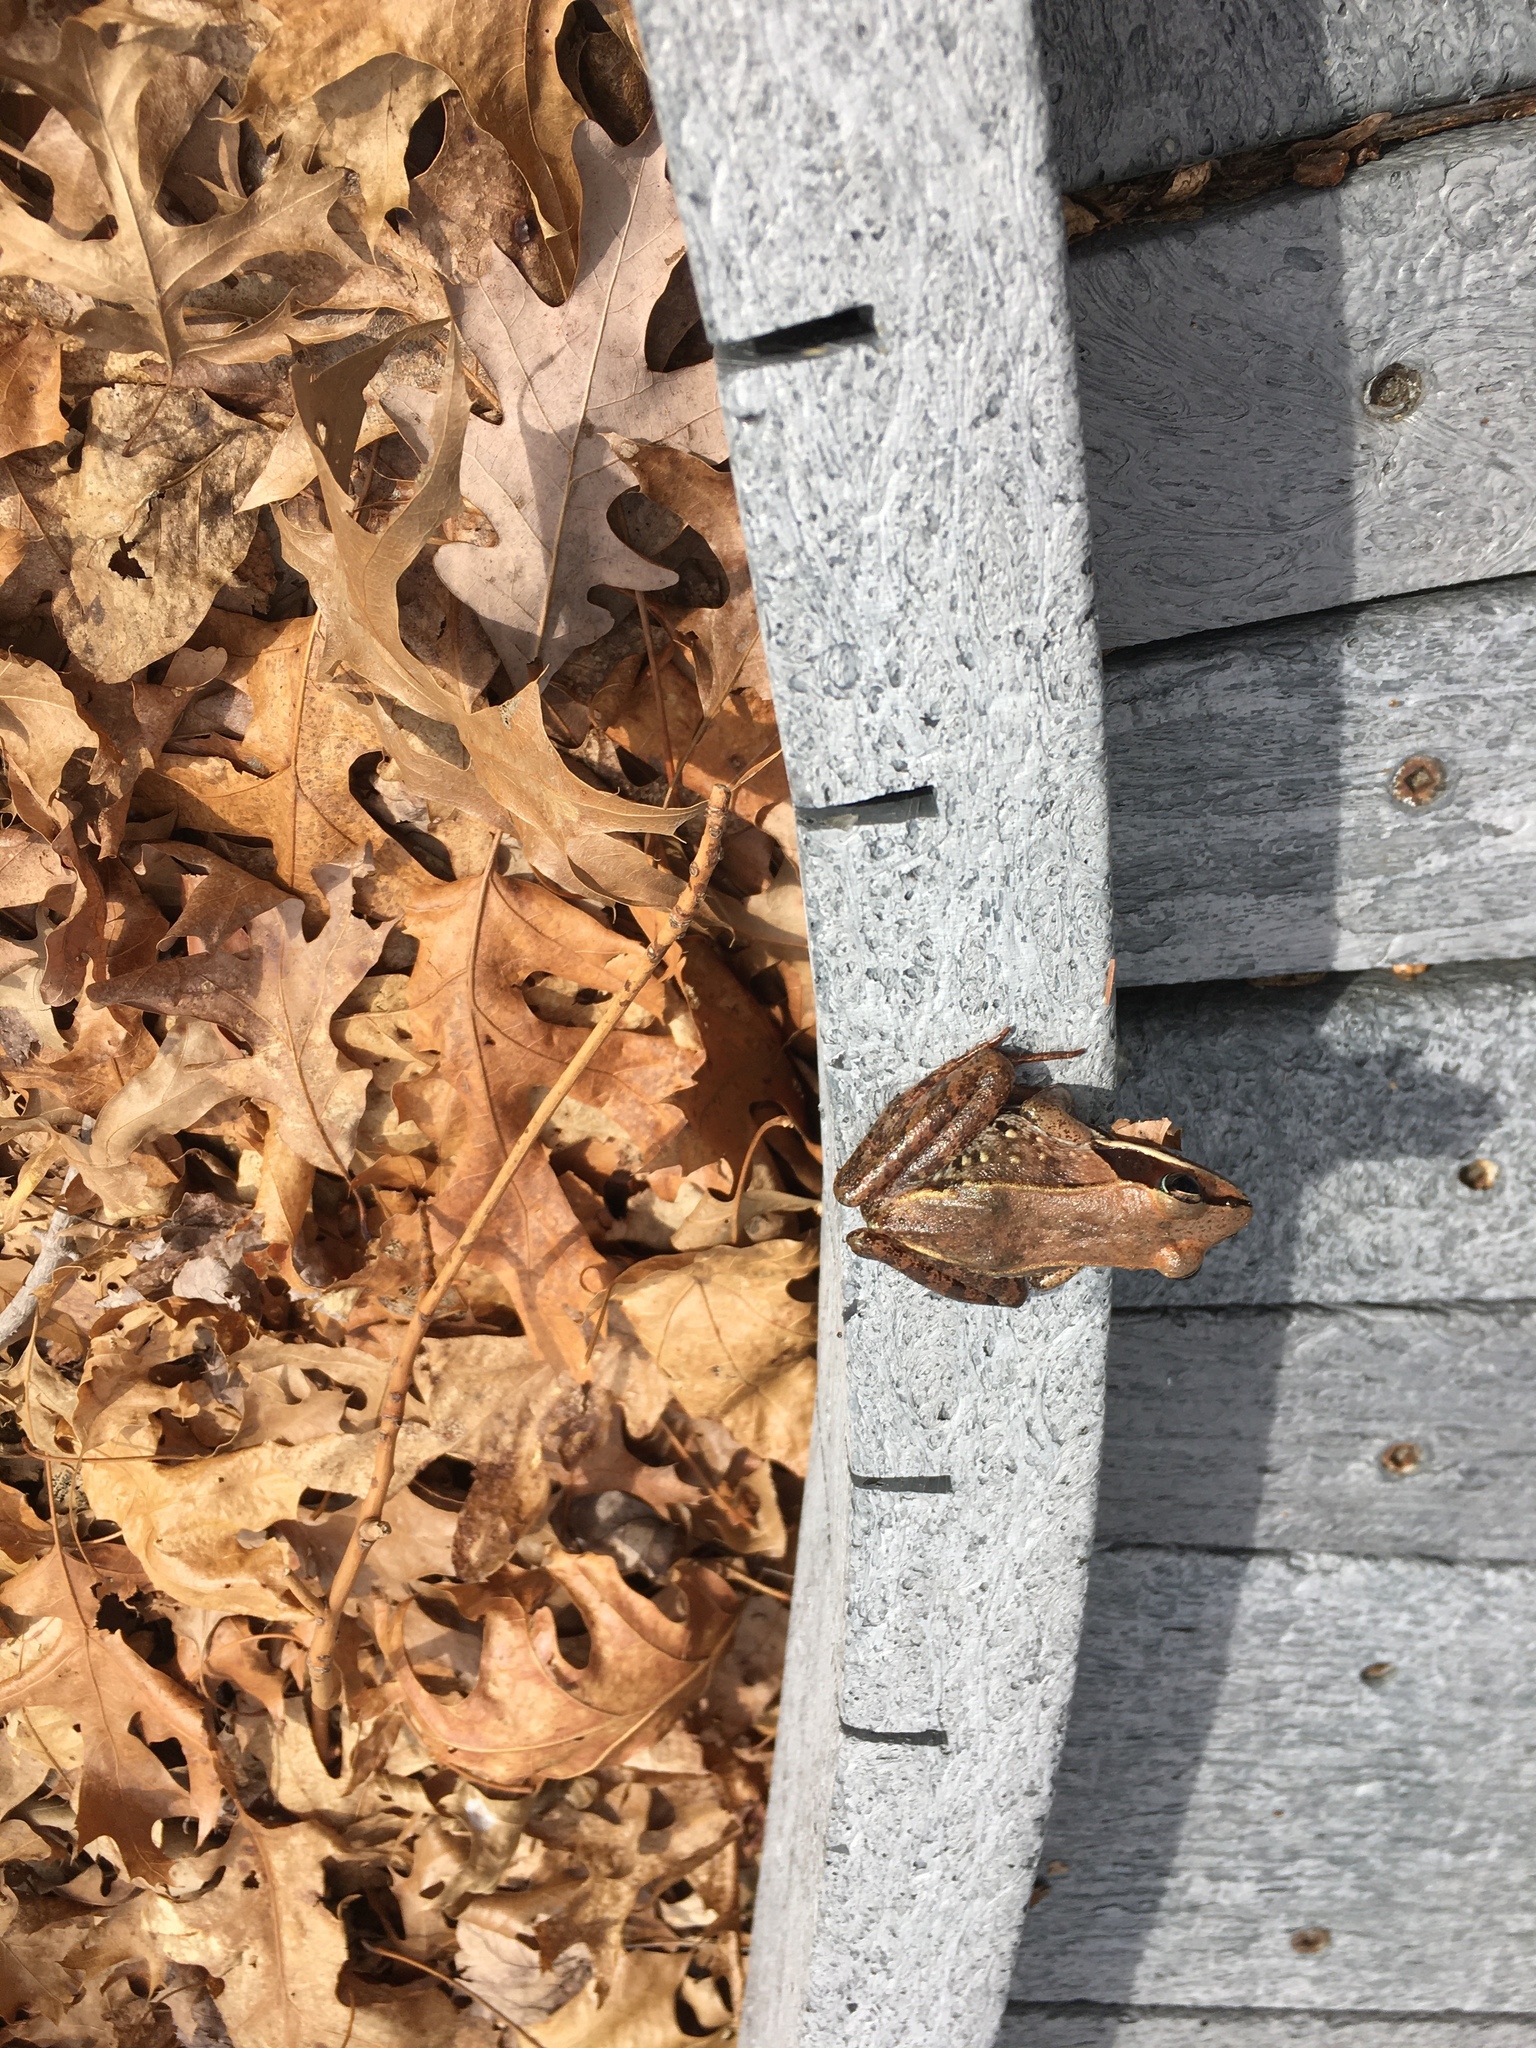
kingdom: Animalia
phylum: Chordata
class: Amphibia
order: Anura
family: Ranidae
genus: Lithobates
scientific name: Lithobates sylvaticus
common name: Wood frog
